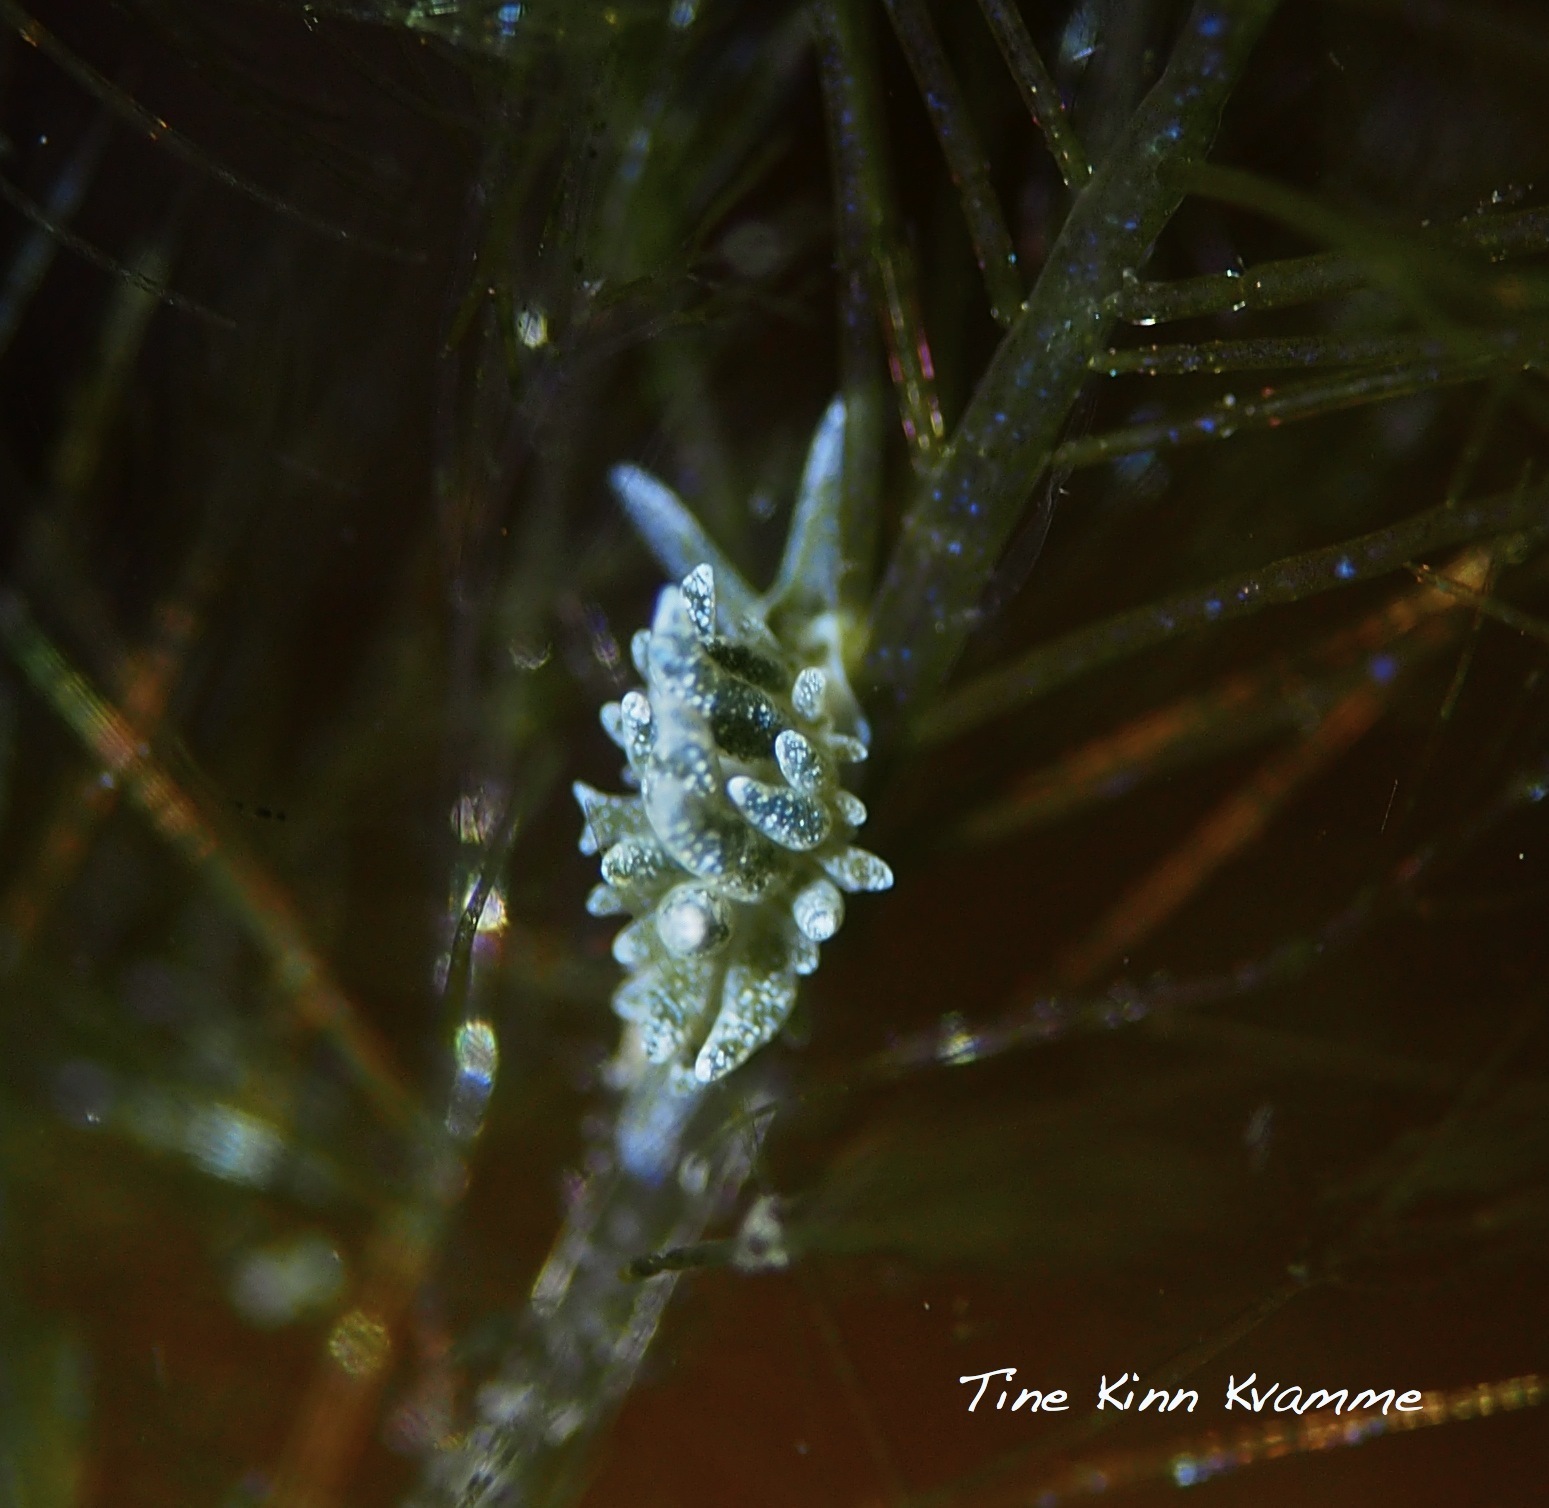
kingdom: Animalia
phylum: Mollusca
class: Gastropoda
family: Limapontiidae
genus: Placida
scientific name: Placida dendritica
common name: Dendritic nudibranch
